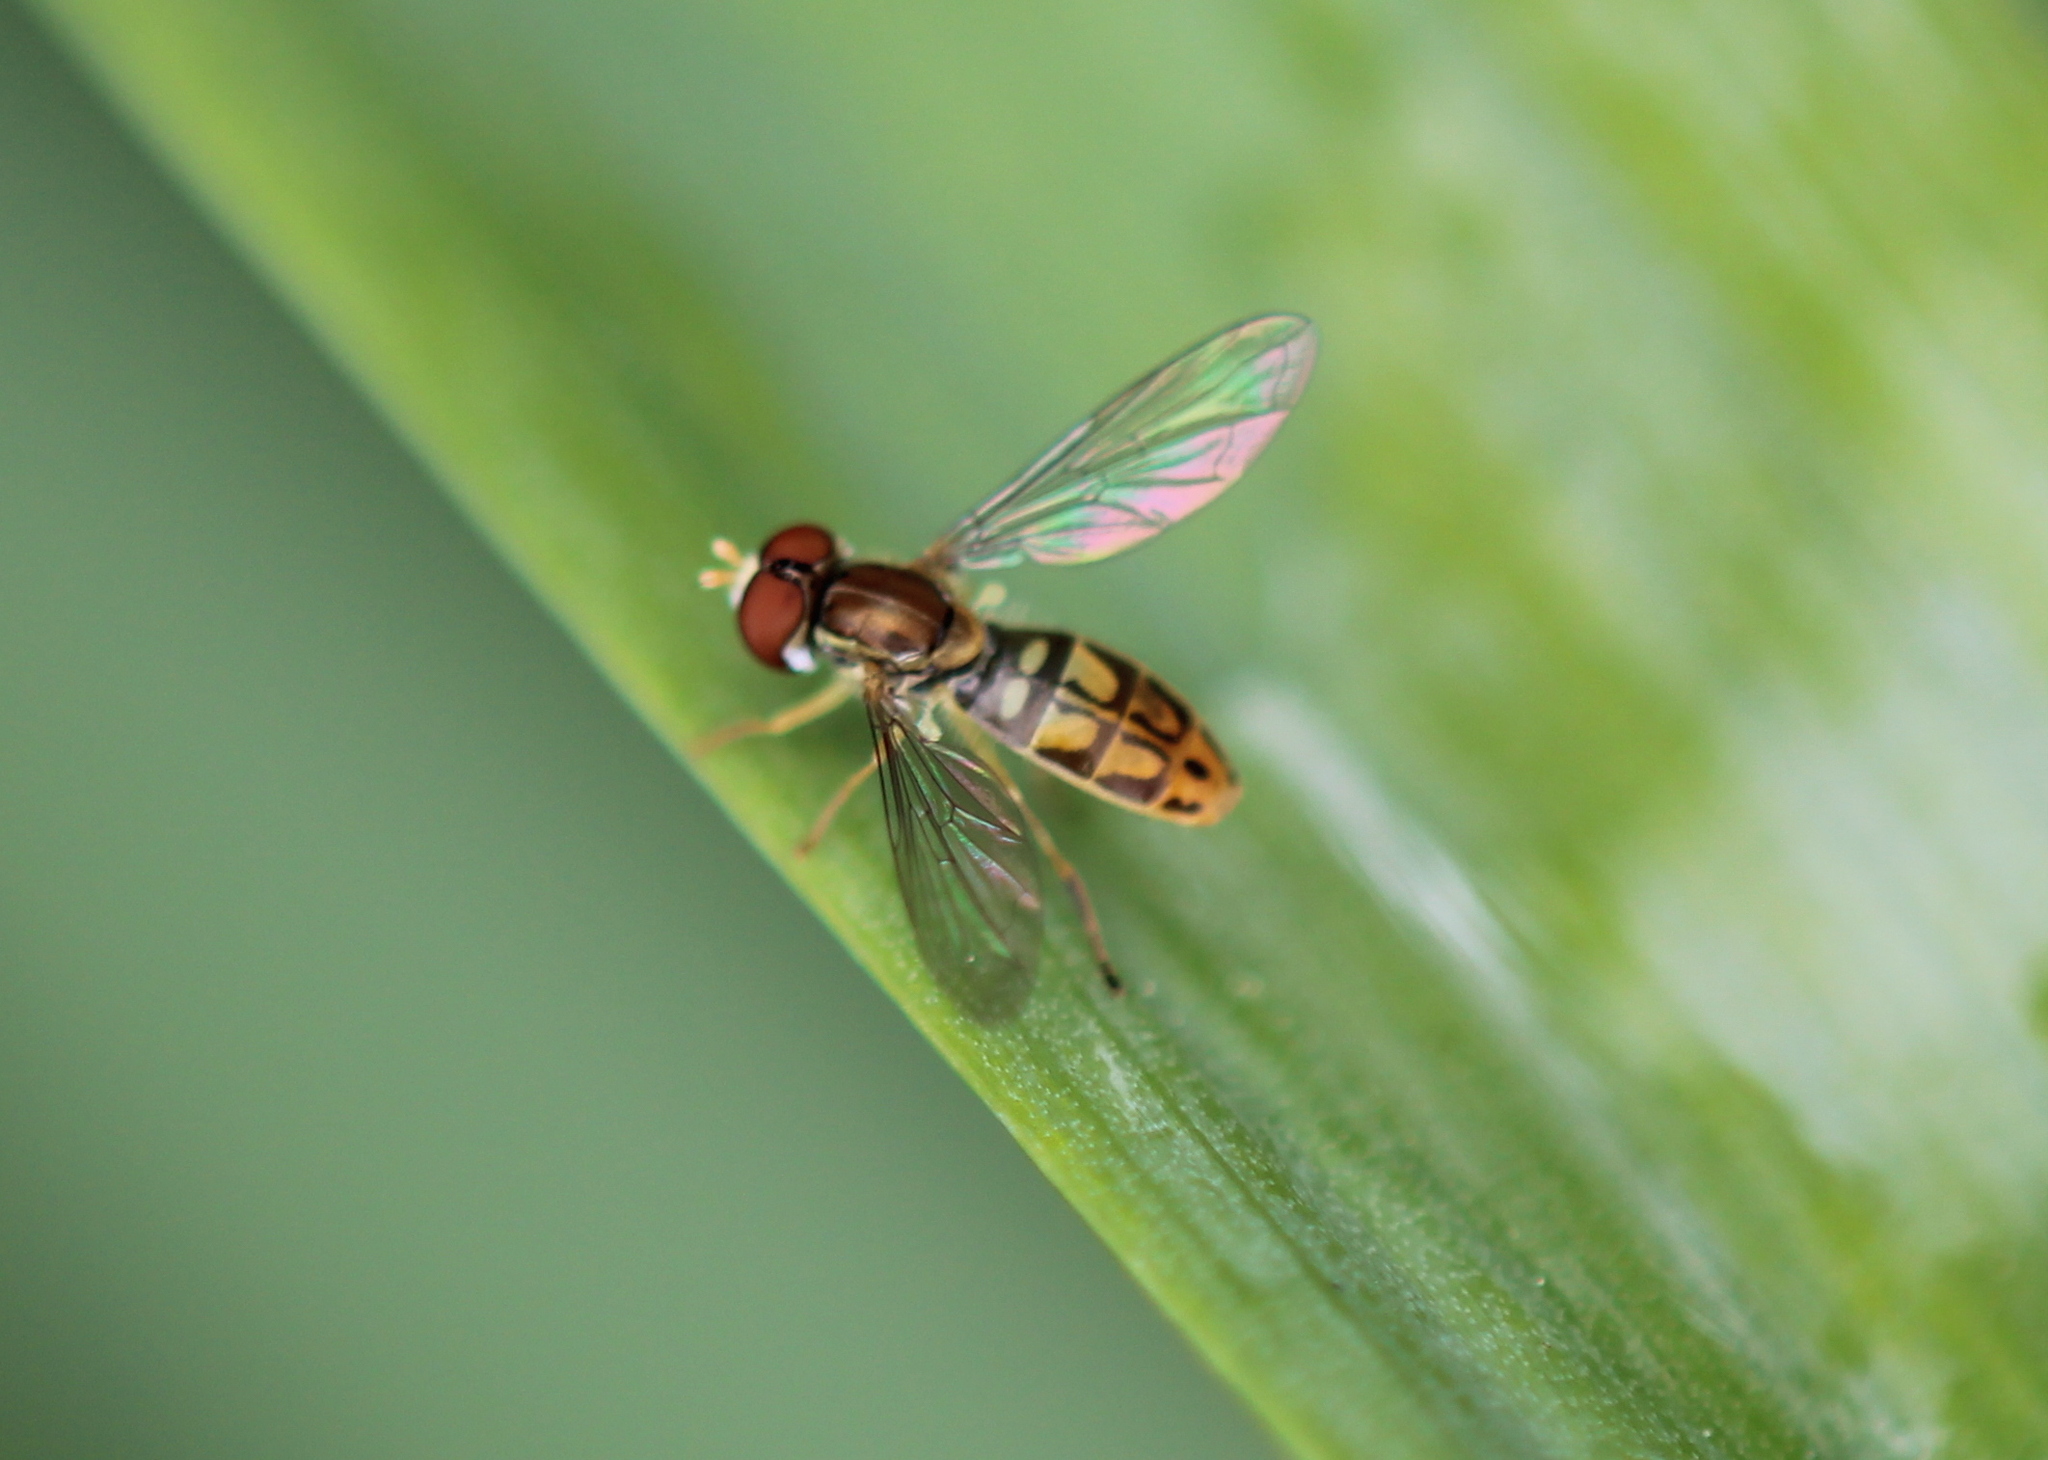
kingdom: Animalia
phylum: Arthropoda
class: Insecta
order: Diptera
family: Syrphidae
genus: Toxomerus
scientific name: Toxomerus marginatus
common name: Syrphid fly
